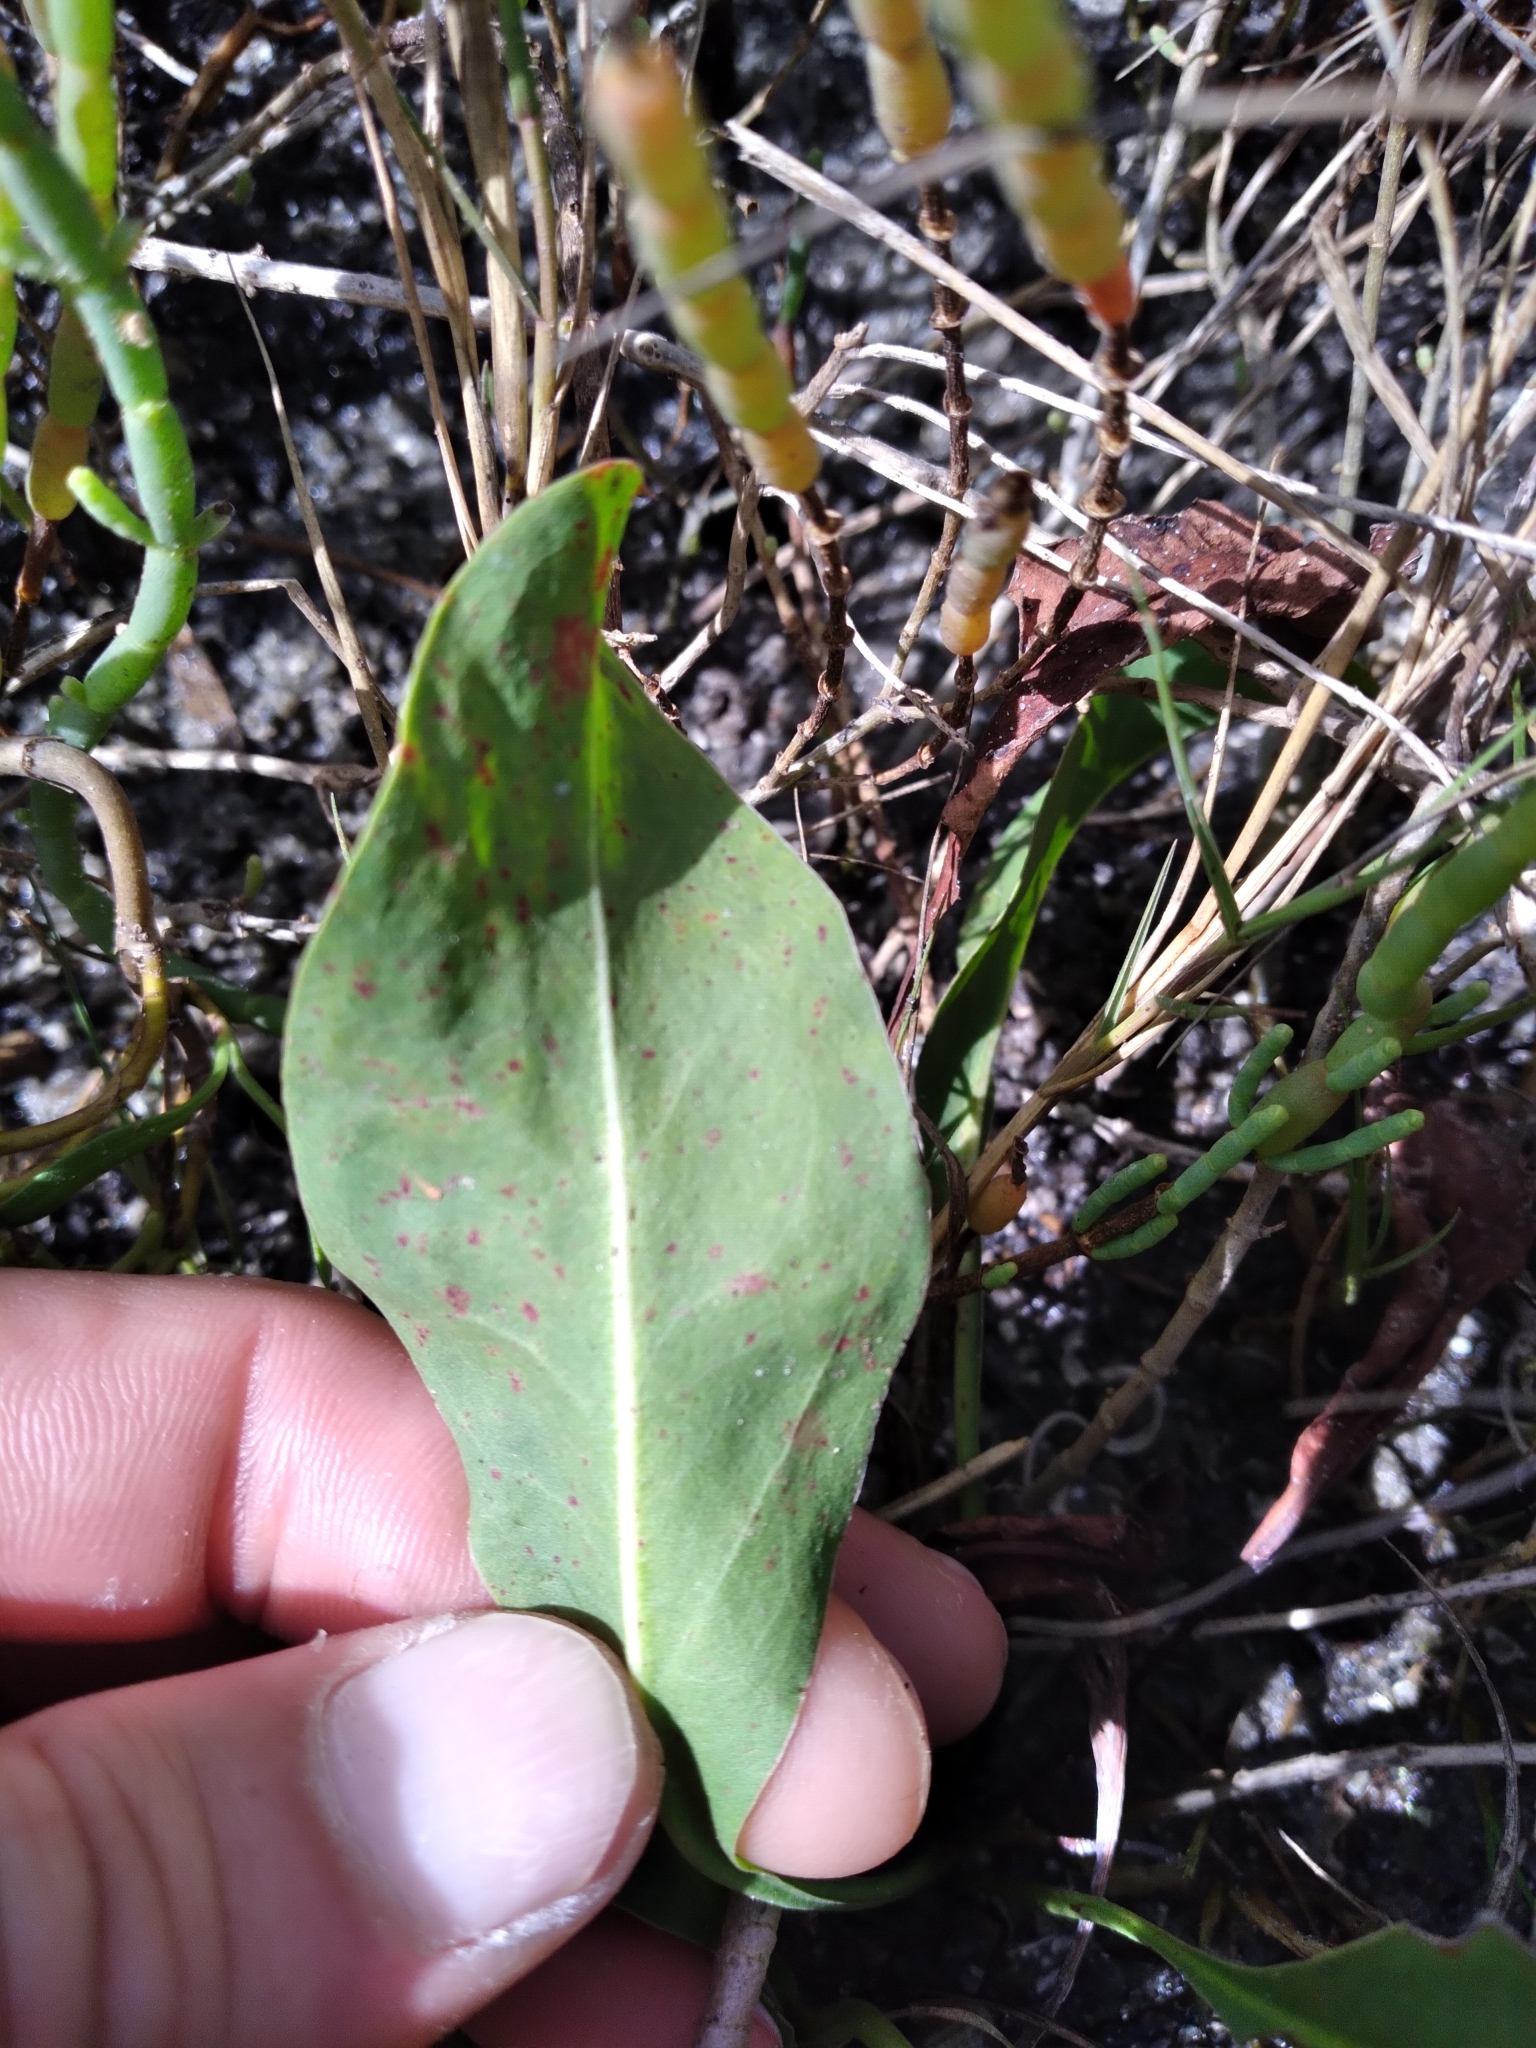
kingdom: Plantae
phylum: Tracheophyta
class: Magnoliopsida
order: Caryophyllales
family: Plumbaginaceae
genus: Limonium
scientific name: Limonium carolinianum
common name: Carolina sea lavender
